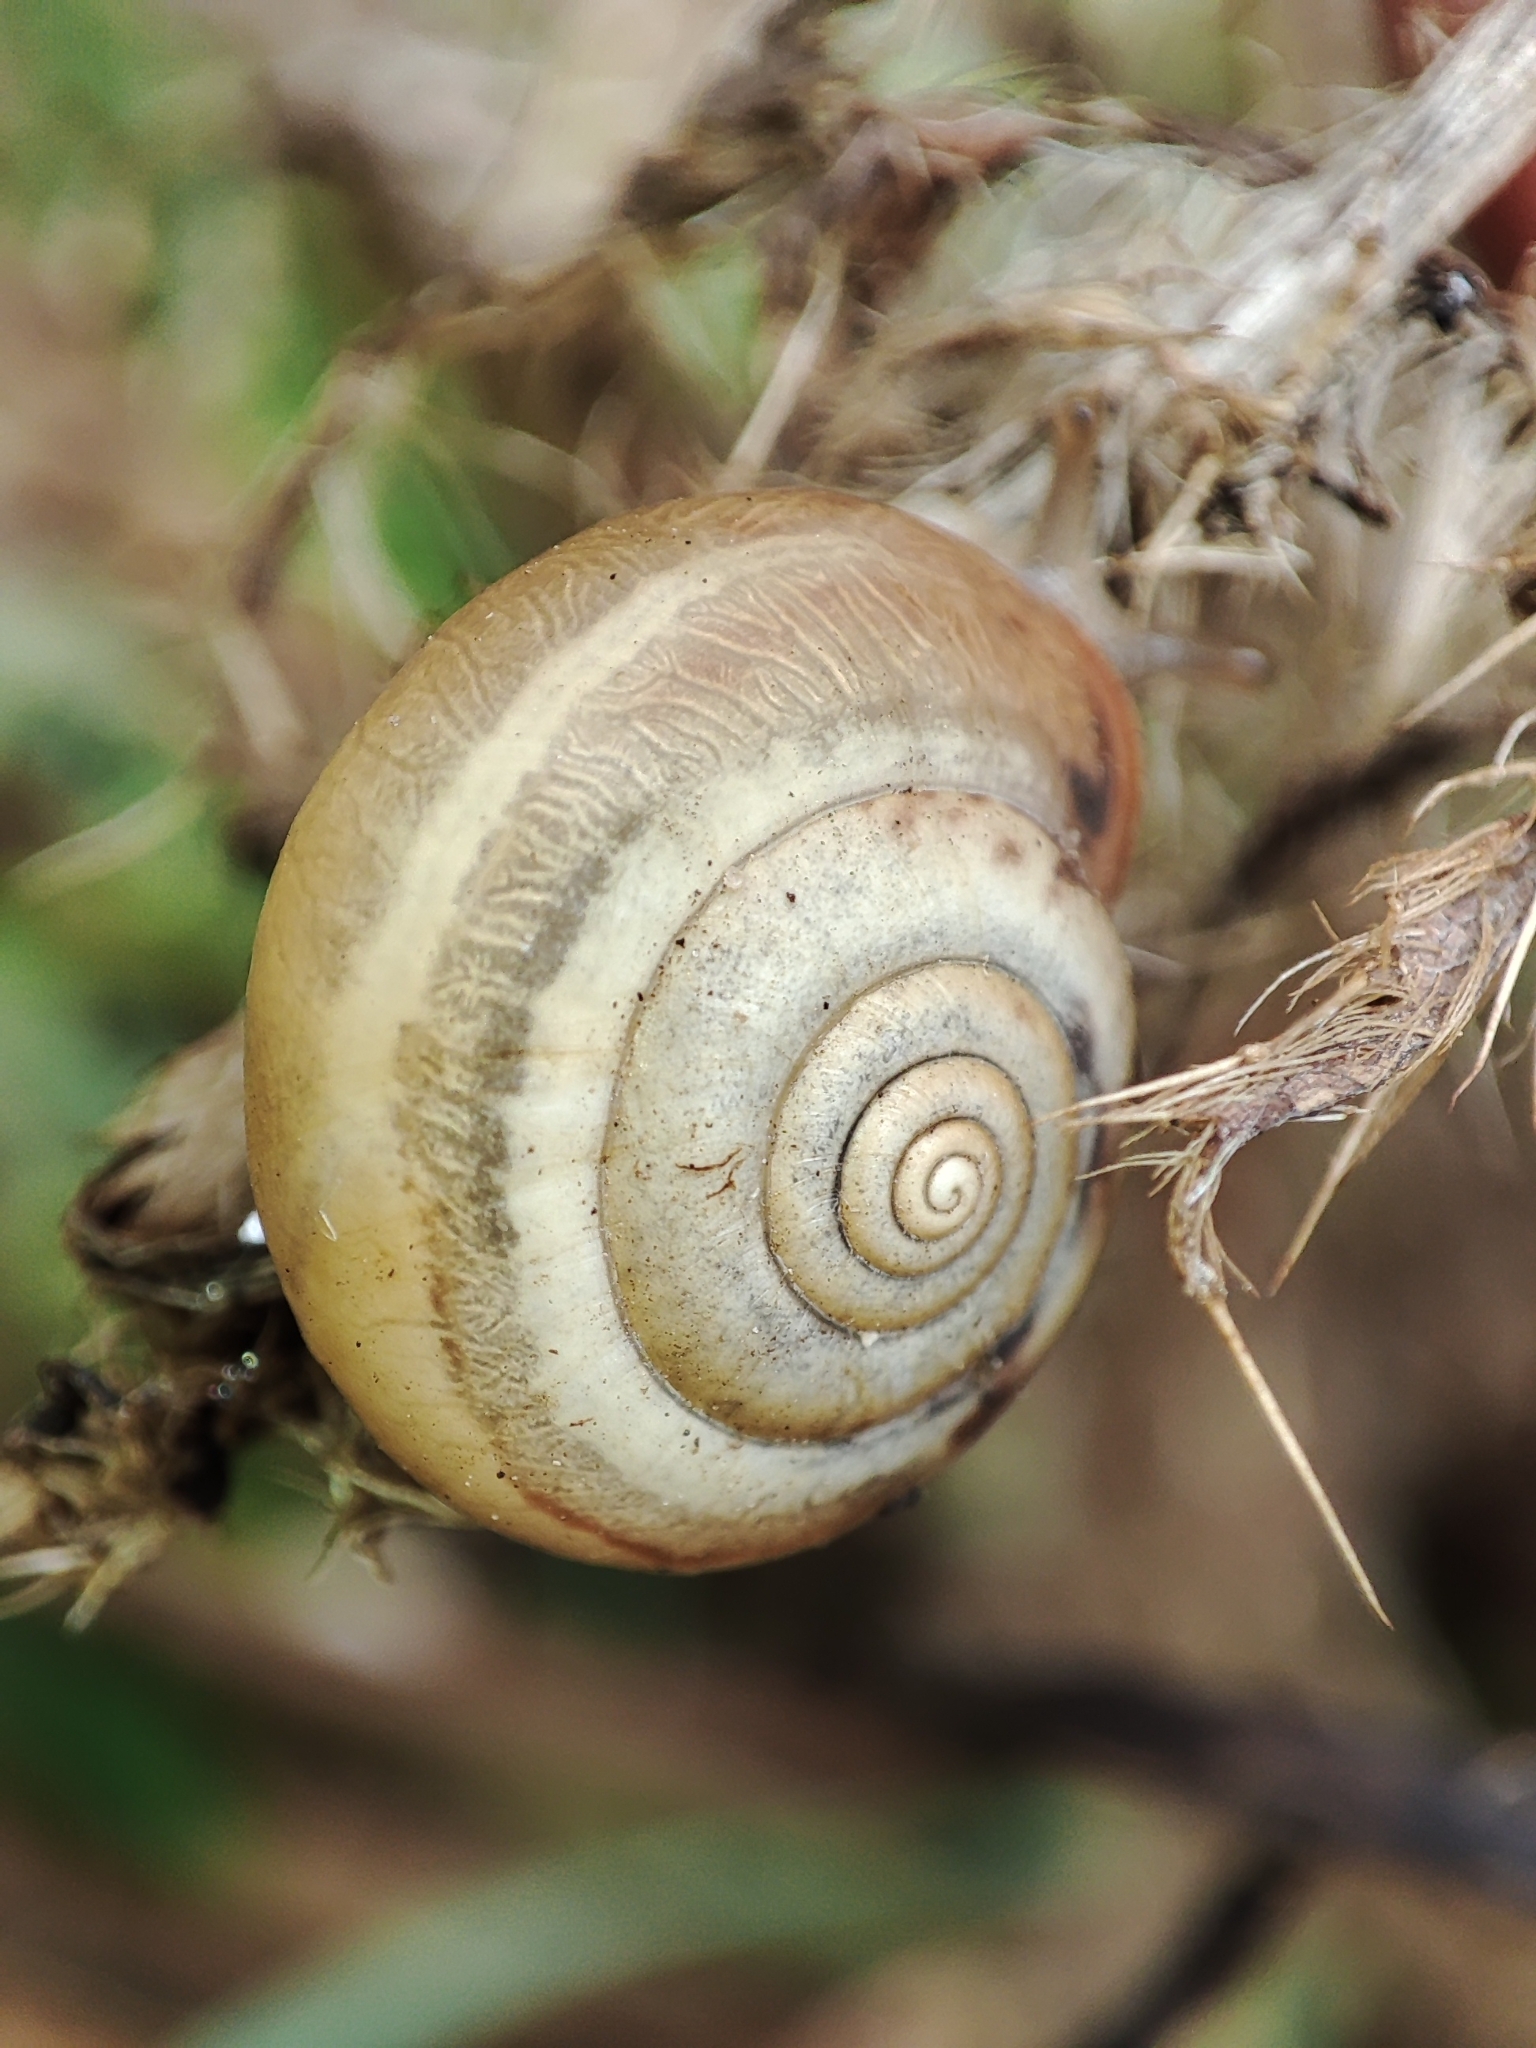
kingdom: Animalia
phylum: Mollusca
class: Gastropoda
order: Stylommatophora
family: Hygromiidae
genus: Monacha
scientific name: Monacha cartusiana
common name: Carthusian snail
